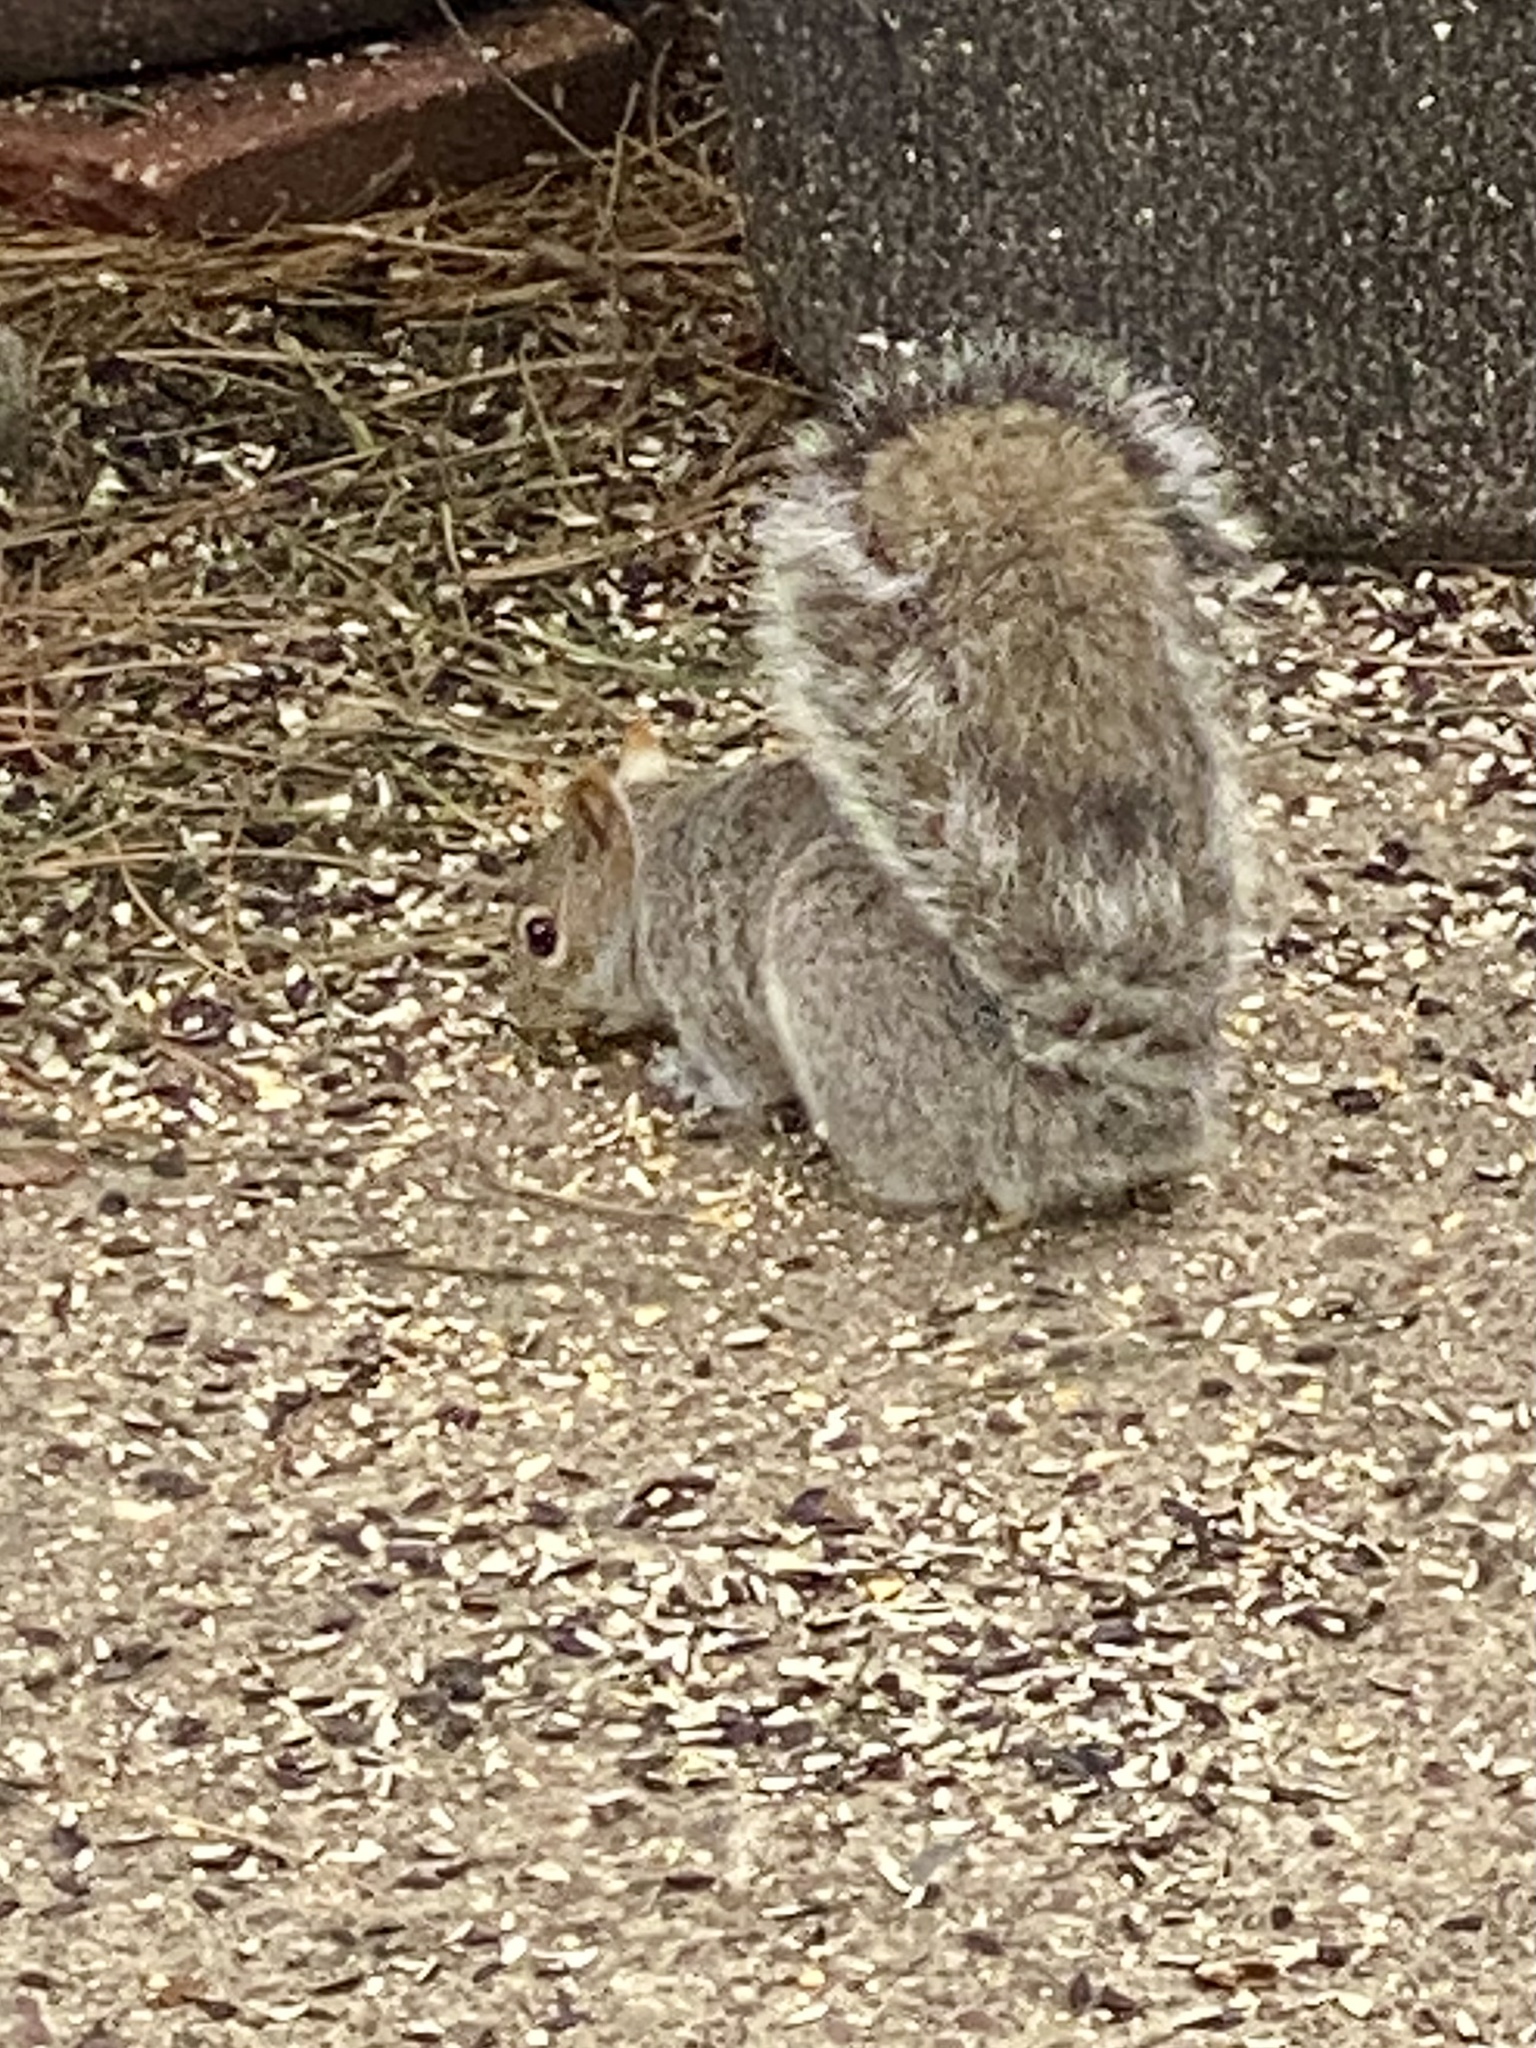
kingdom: Animalia
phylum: Chordata
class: Mammalia
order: Rodentia
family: Sciuridae
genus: Sciurus
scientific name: Sciurus carolinensis
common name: Eastern gray squirrel
